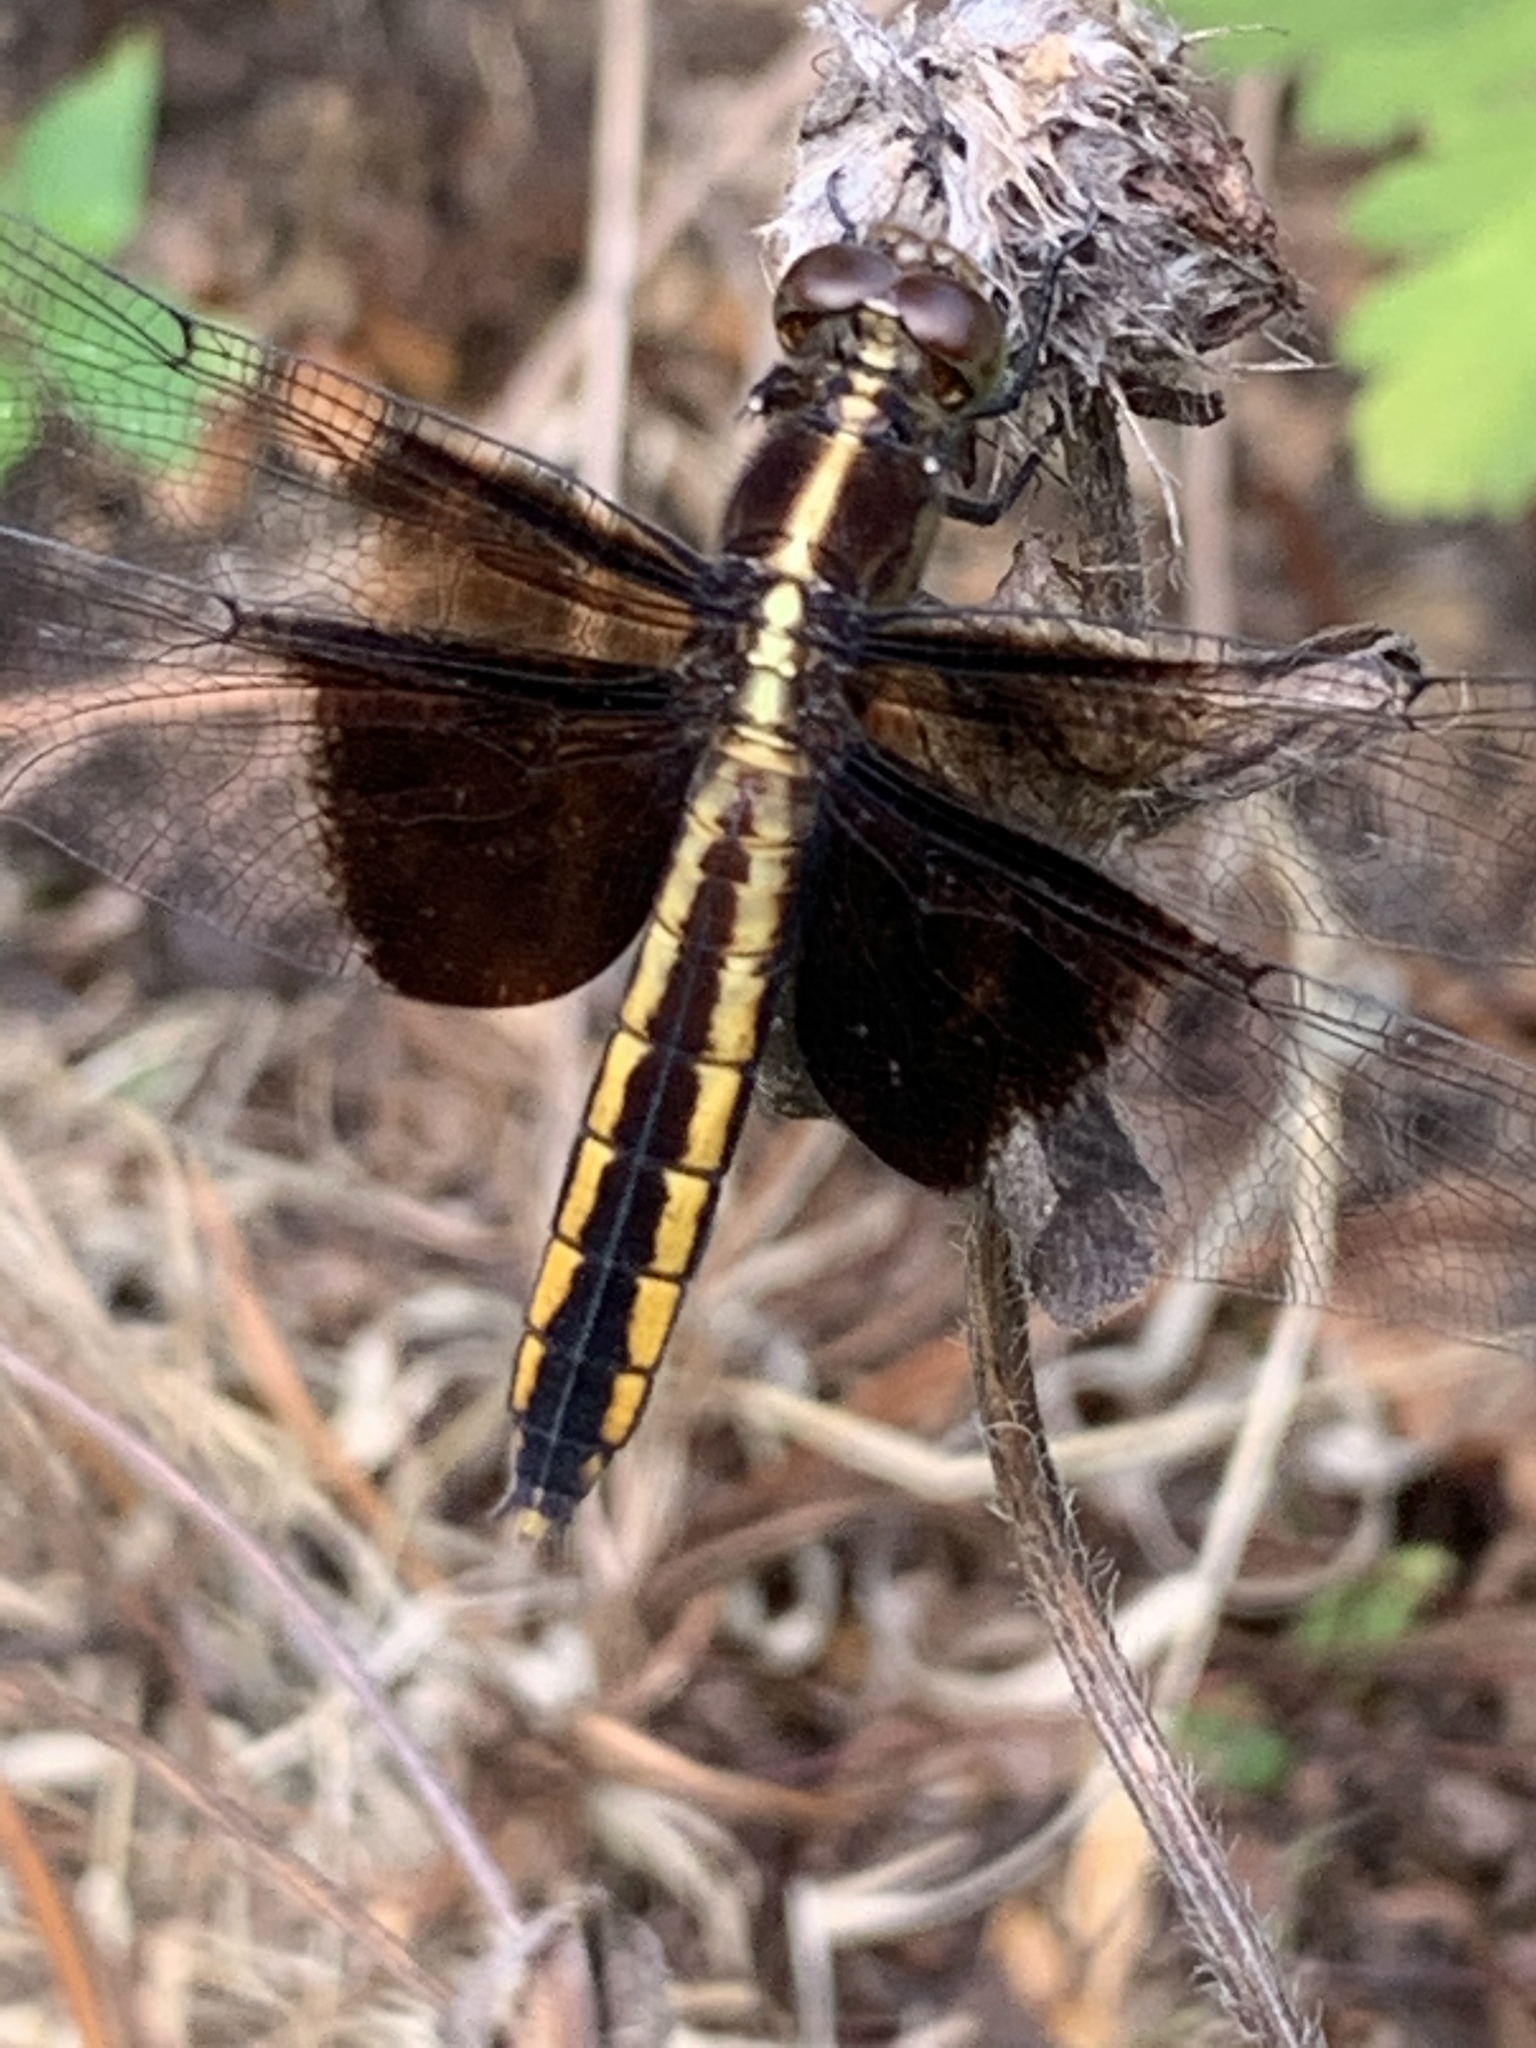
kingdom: Animalia
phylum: Arthropoda
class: Insecta
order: Odonata
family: Libellulidae
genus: Libellula
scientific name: Libellula luctuosa
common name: Widow skimmer
